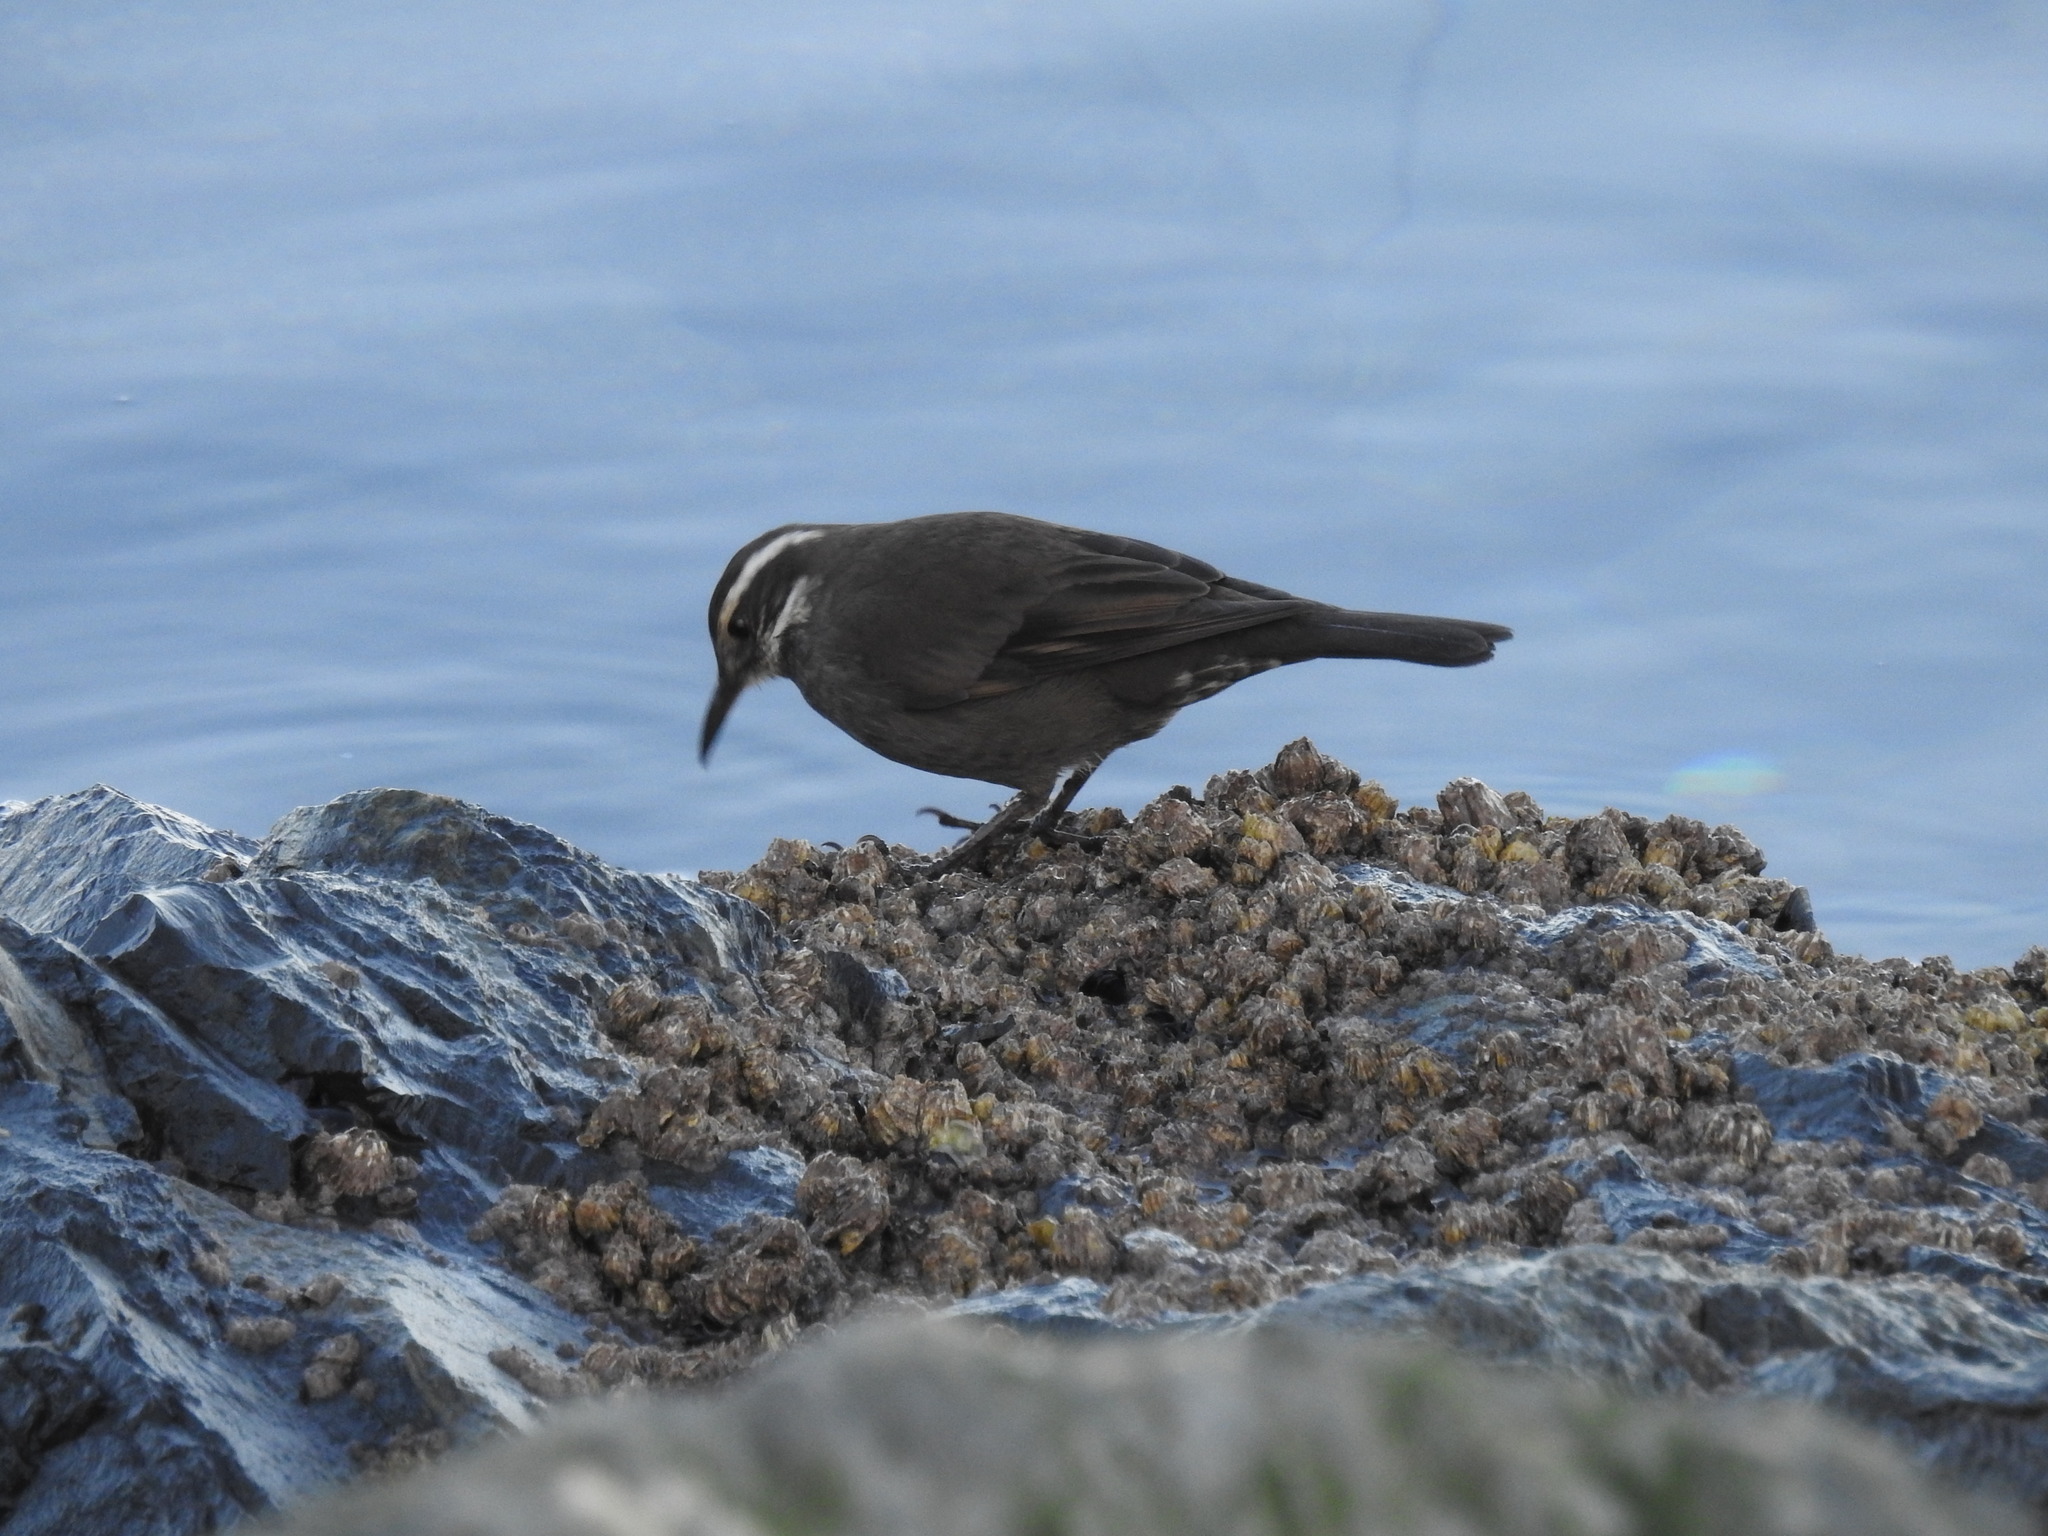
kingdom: Animalia
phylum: Chordata
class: Aves
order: Passeriformes
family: Furnariidae
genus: Cinclodes
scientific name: Cinclodes patagonicus
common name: Dark-bellied cinclodes
